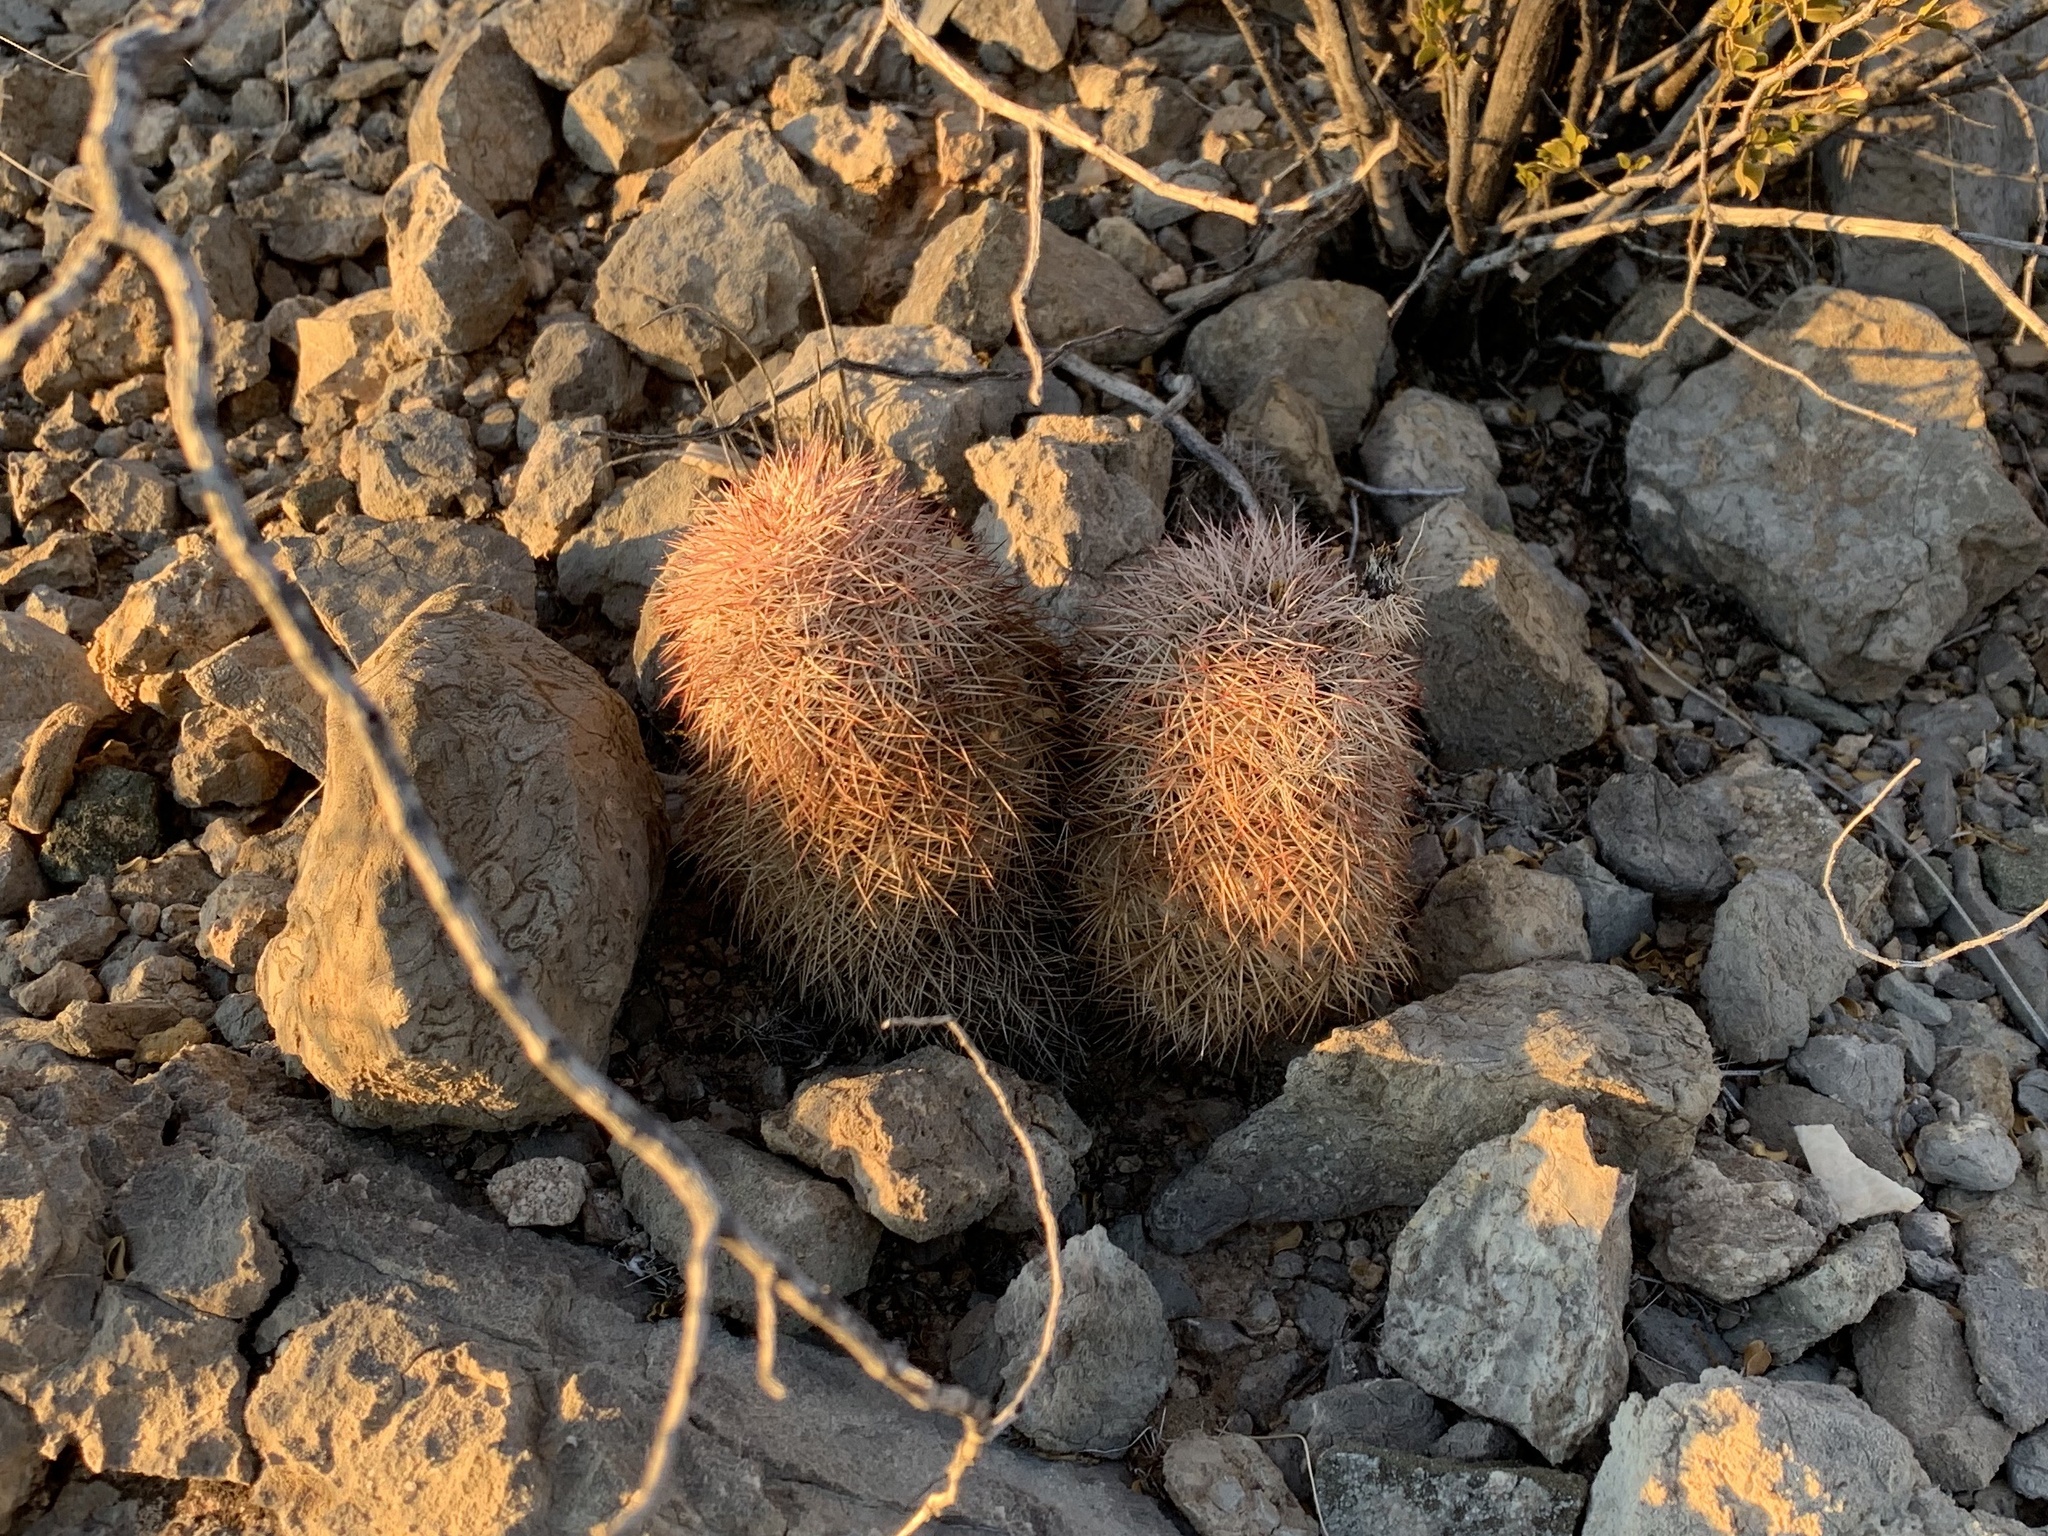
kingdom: Plantae
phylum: Tracheophyta
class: Magnoliopsida
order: Caryophyllales
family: Cactaceae
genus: Echinocereus
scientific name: Echinocereus dasyacanthus
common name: Spiny hedgehog cactus
